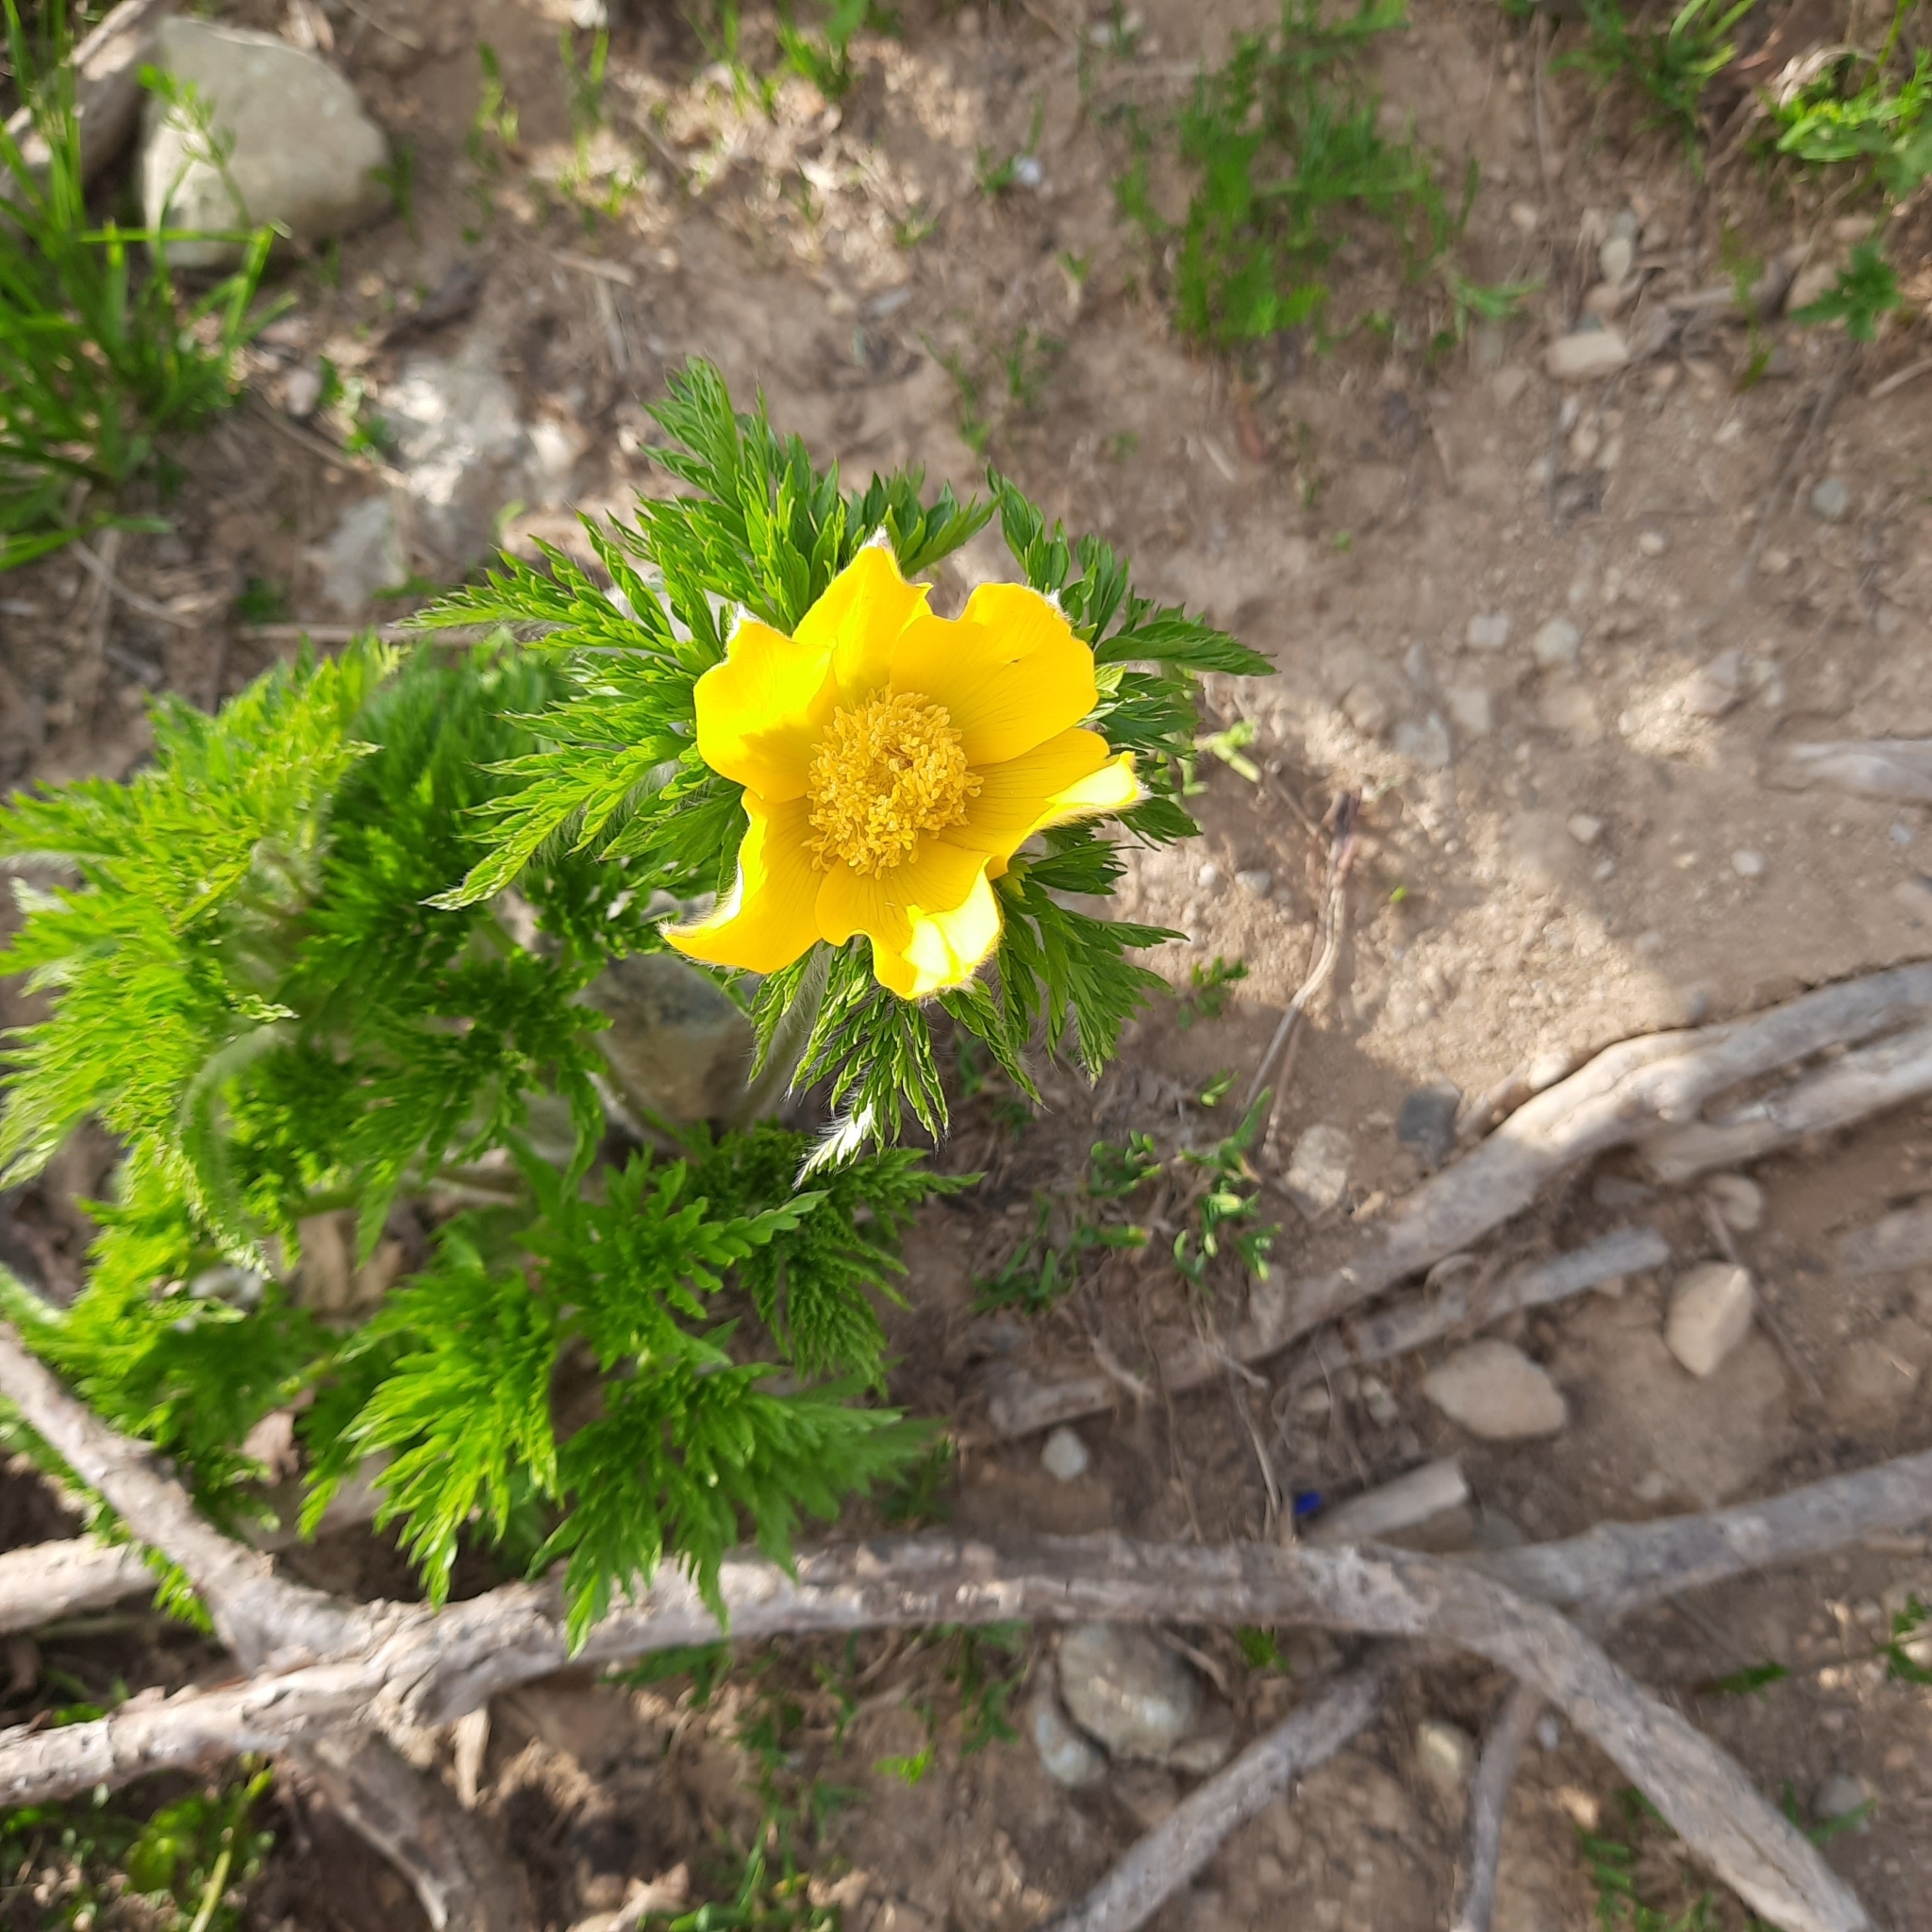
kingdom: Plantae
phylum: Tracheophyta
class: Magnoliopsida
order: Ranunculales
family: Ranunculaceae
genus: Pulsatilla
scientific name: Pulsatilla aurea
